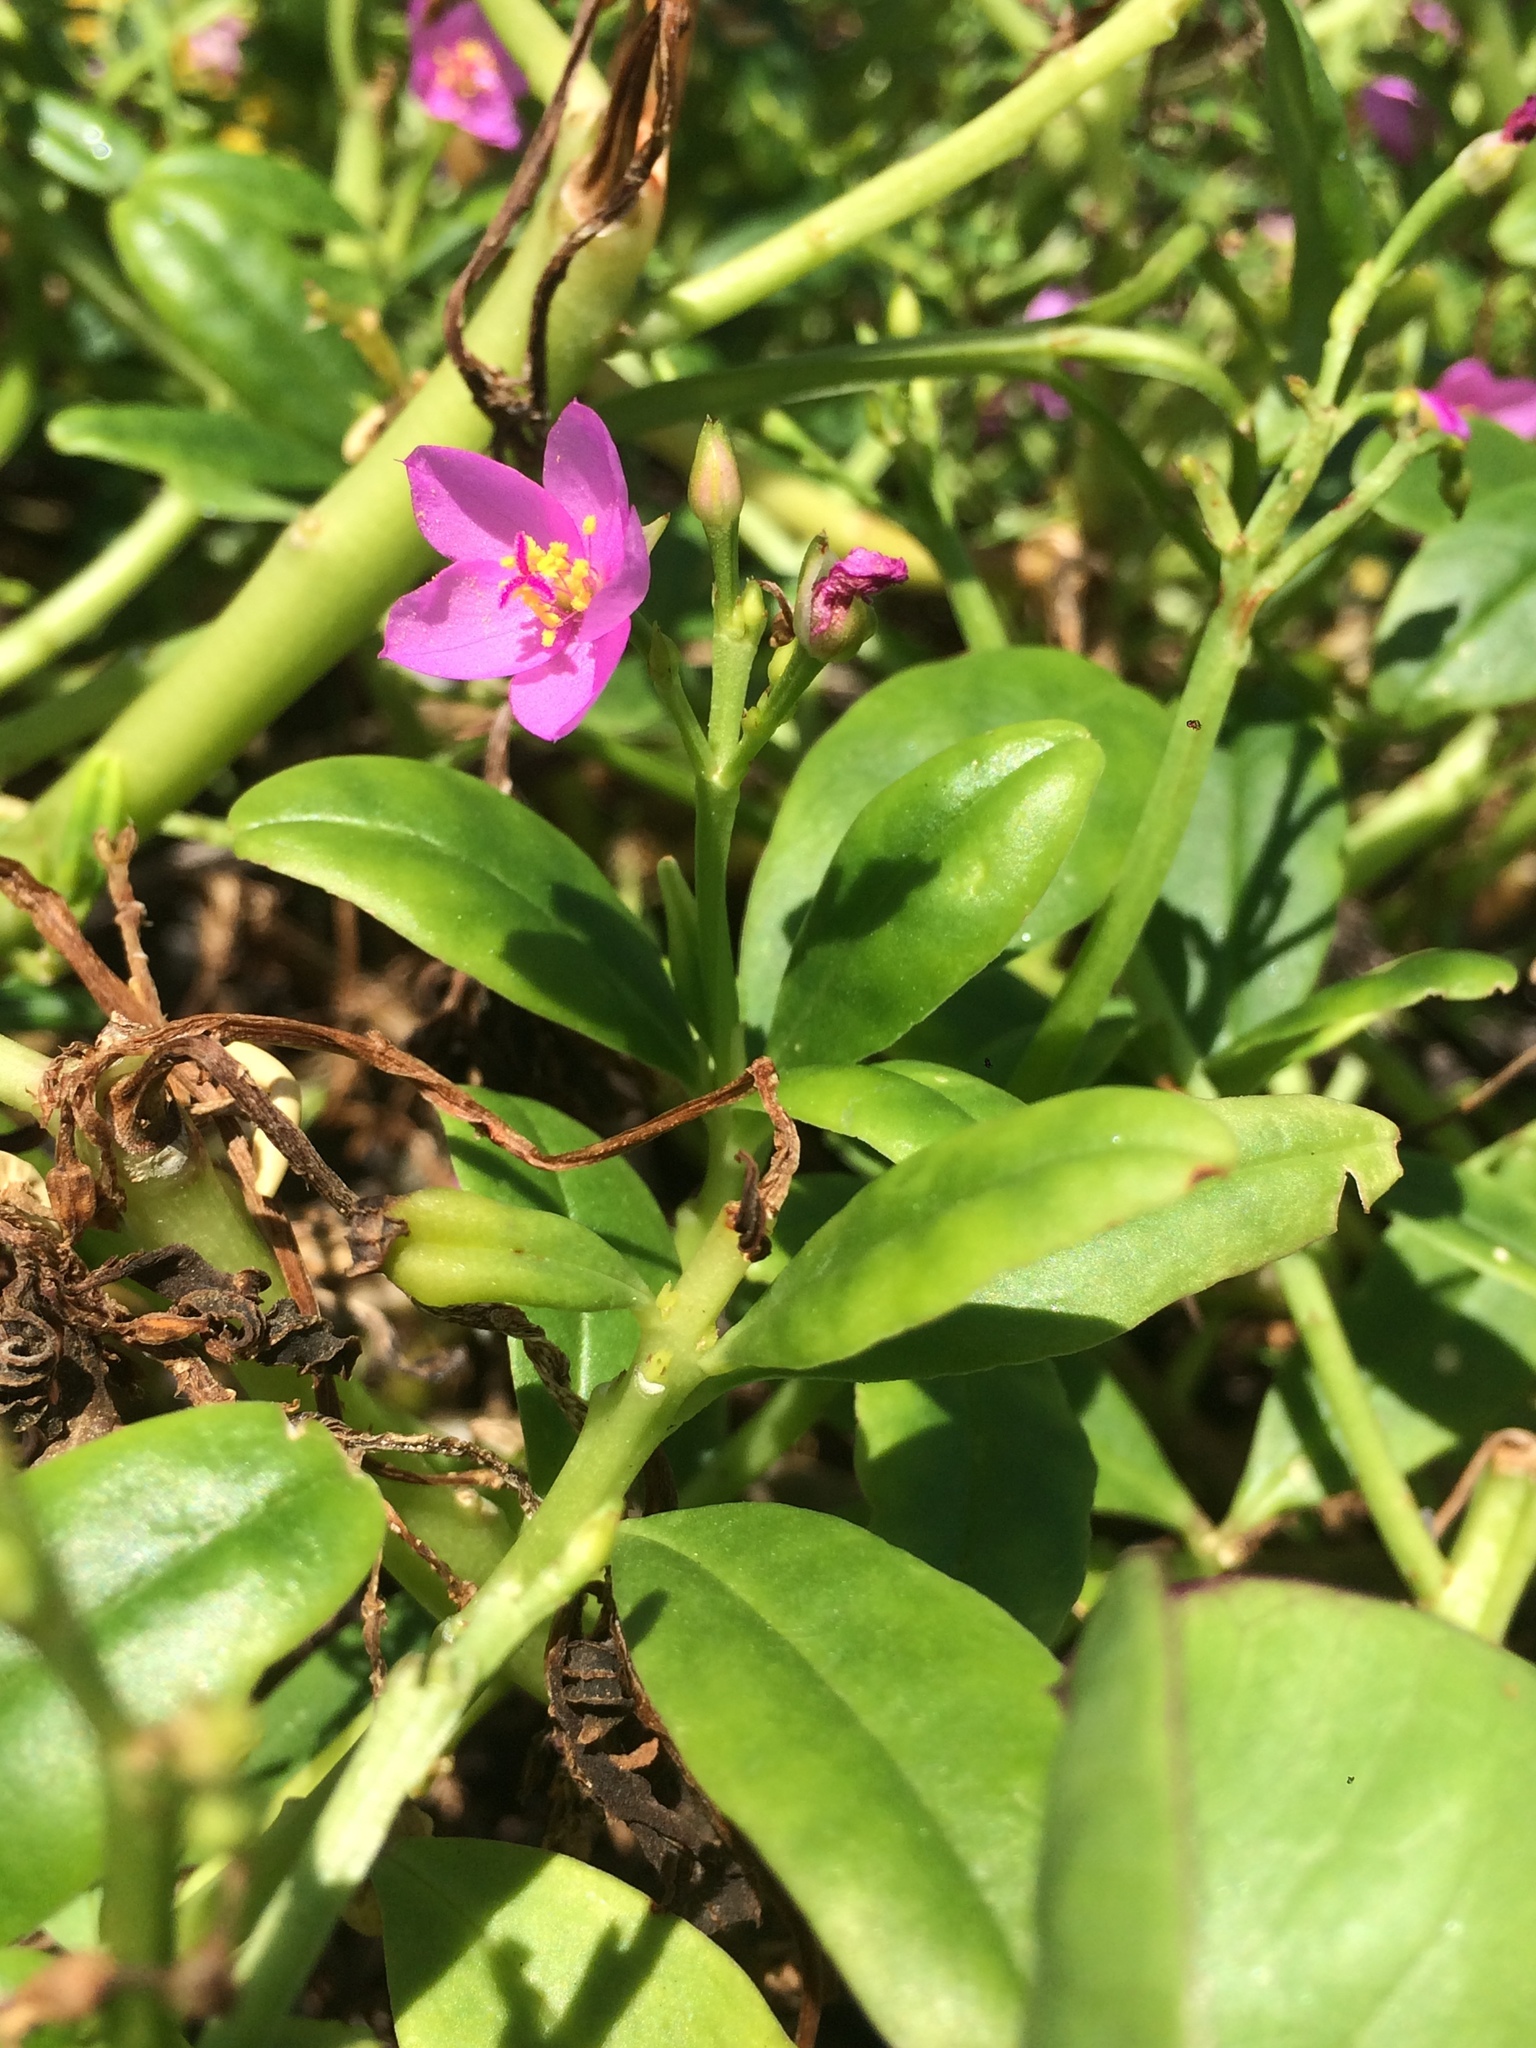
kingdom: Plantae
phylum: Tracheophyta
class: Magnoliopsida
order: Caryophyllales
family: Talinaceae
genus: Talinum
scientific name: Talinum fruticosum
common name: Verdolaga-francesa
